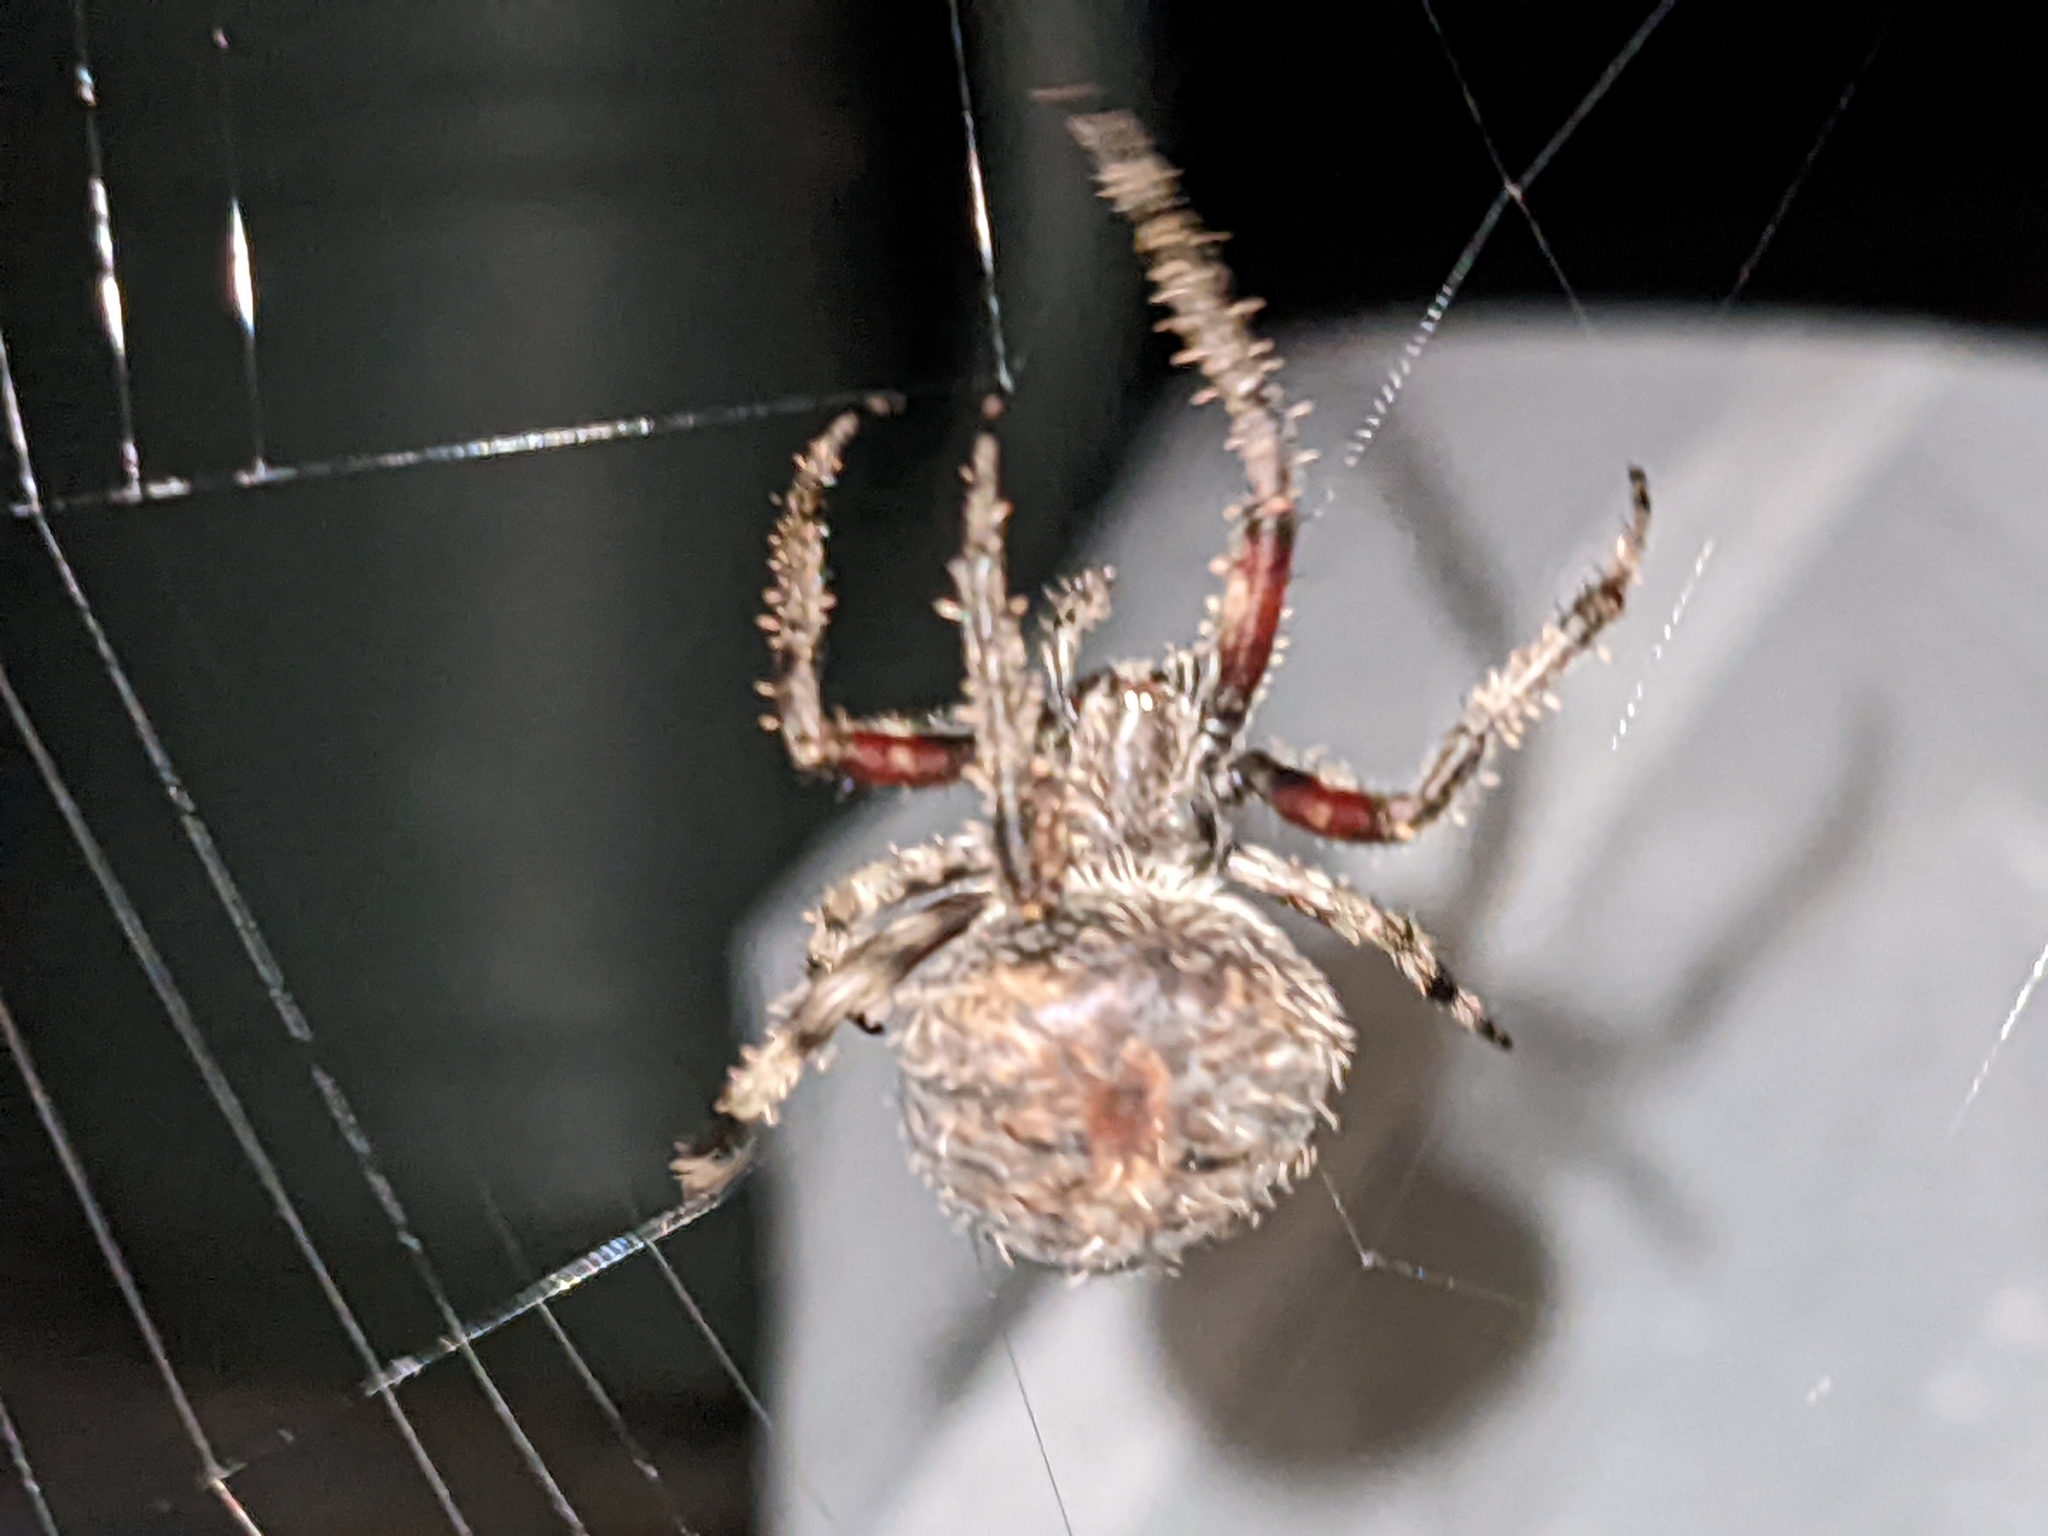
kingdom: Animalia
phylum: Arthropoda
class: Arachnida
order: Araneae
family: Araneidae
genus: Neoscona
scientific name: Neoscona crucifera
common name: Spotted orbweaver
